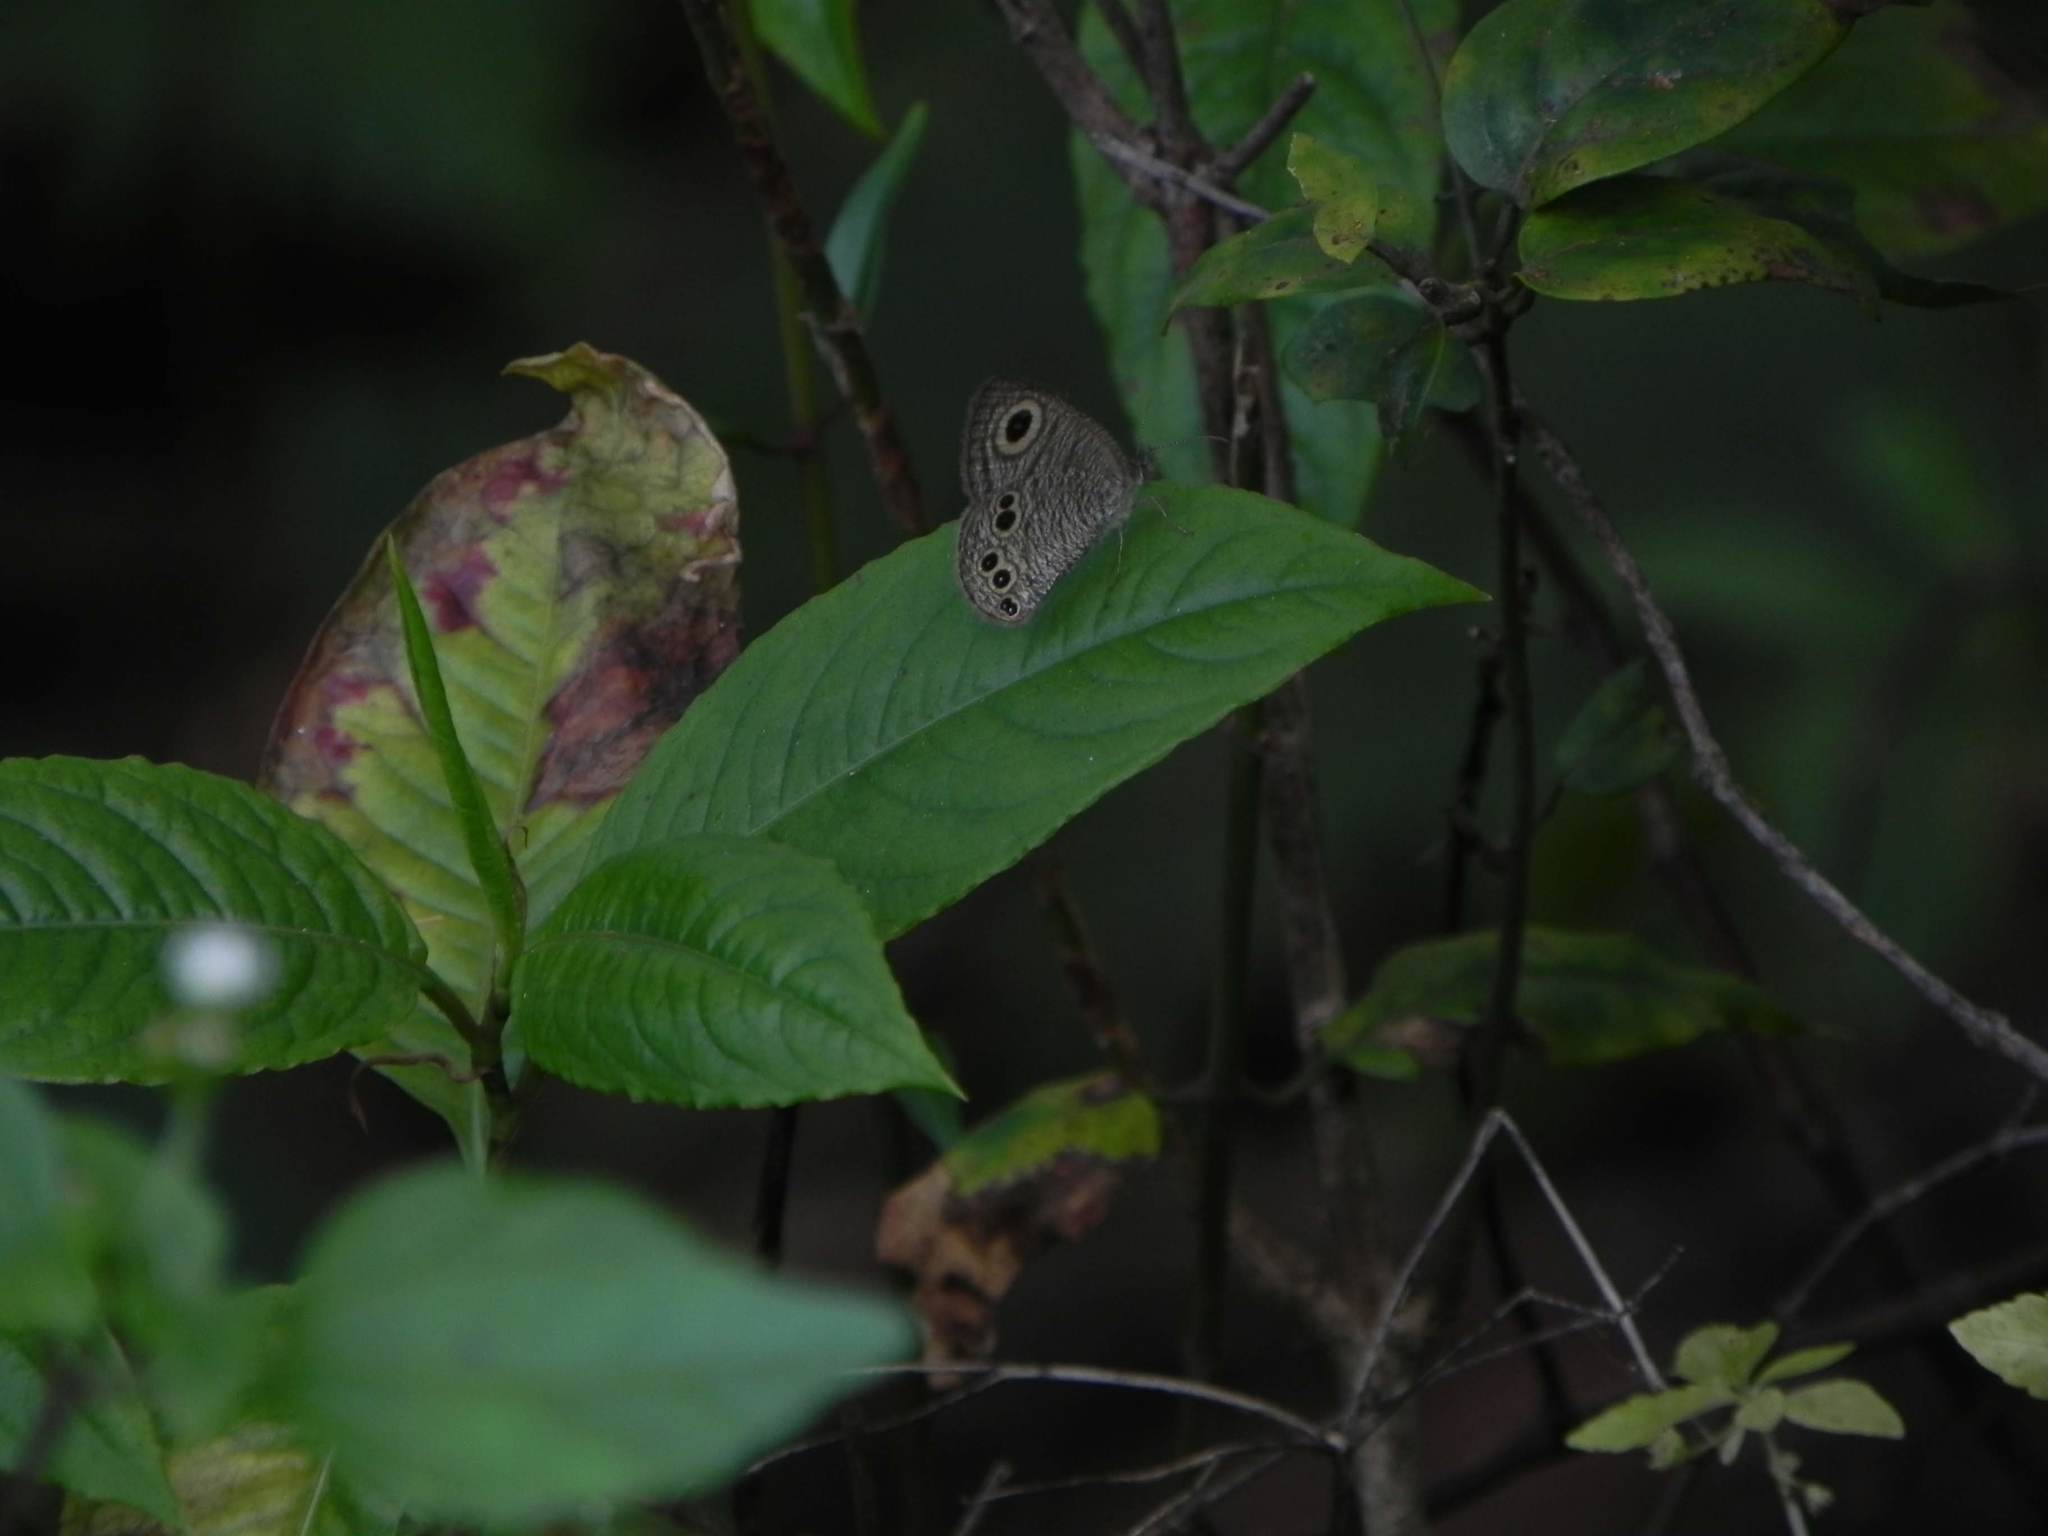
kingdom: Animalia
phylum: Arthropoda
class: Insecta
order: Lepidoptera
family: Nymphalidae
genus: Ypthima
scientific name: Ypthima baldus
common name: Common five-ring
